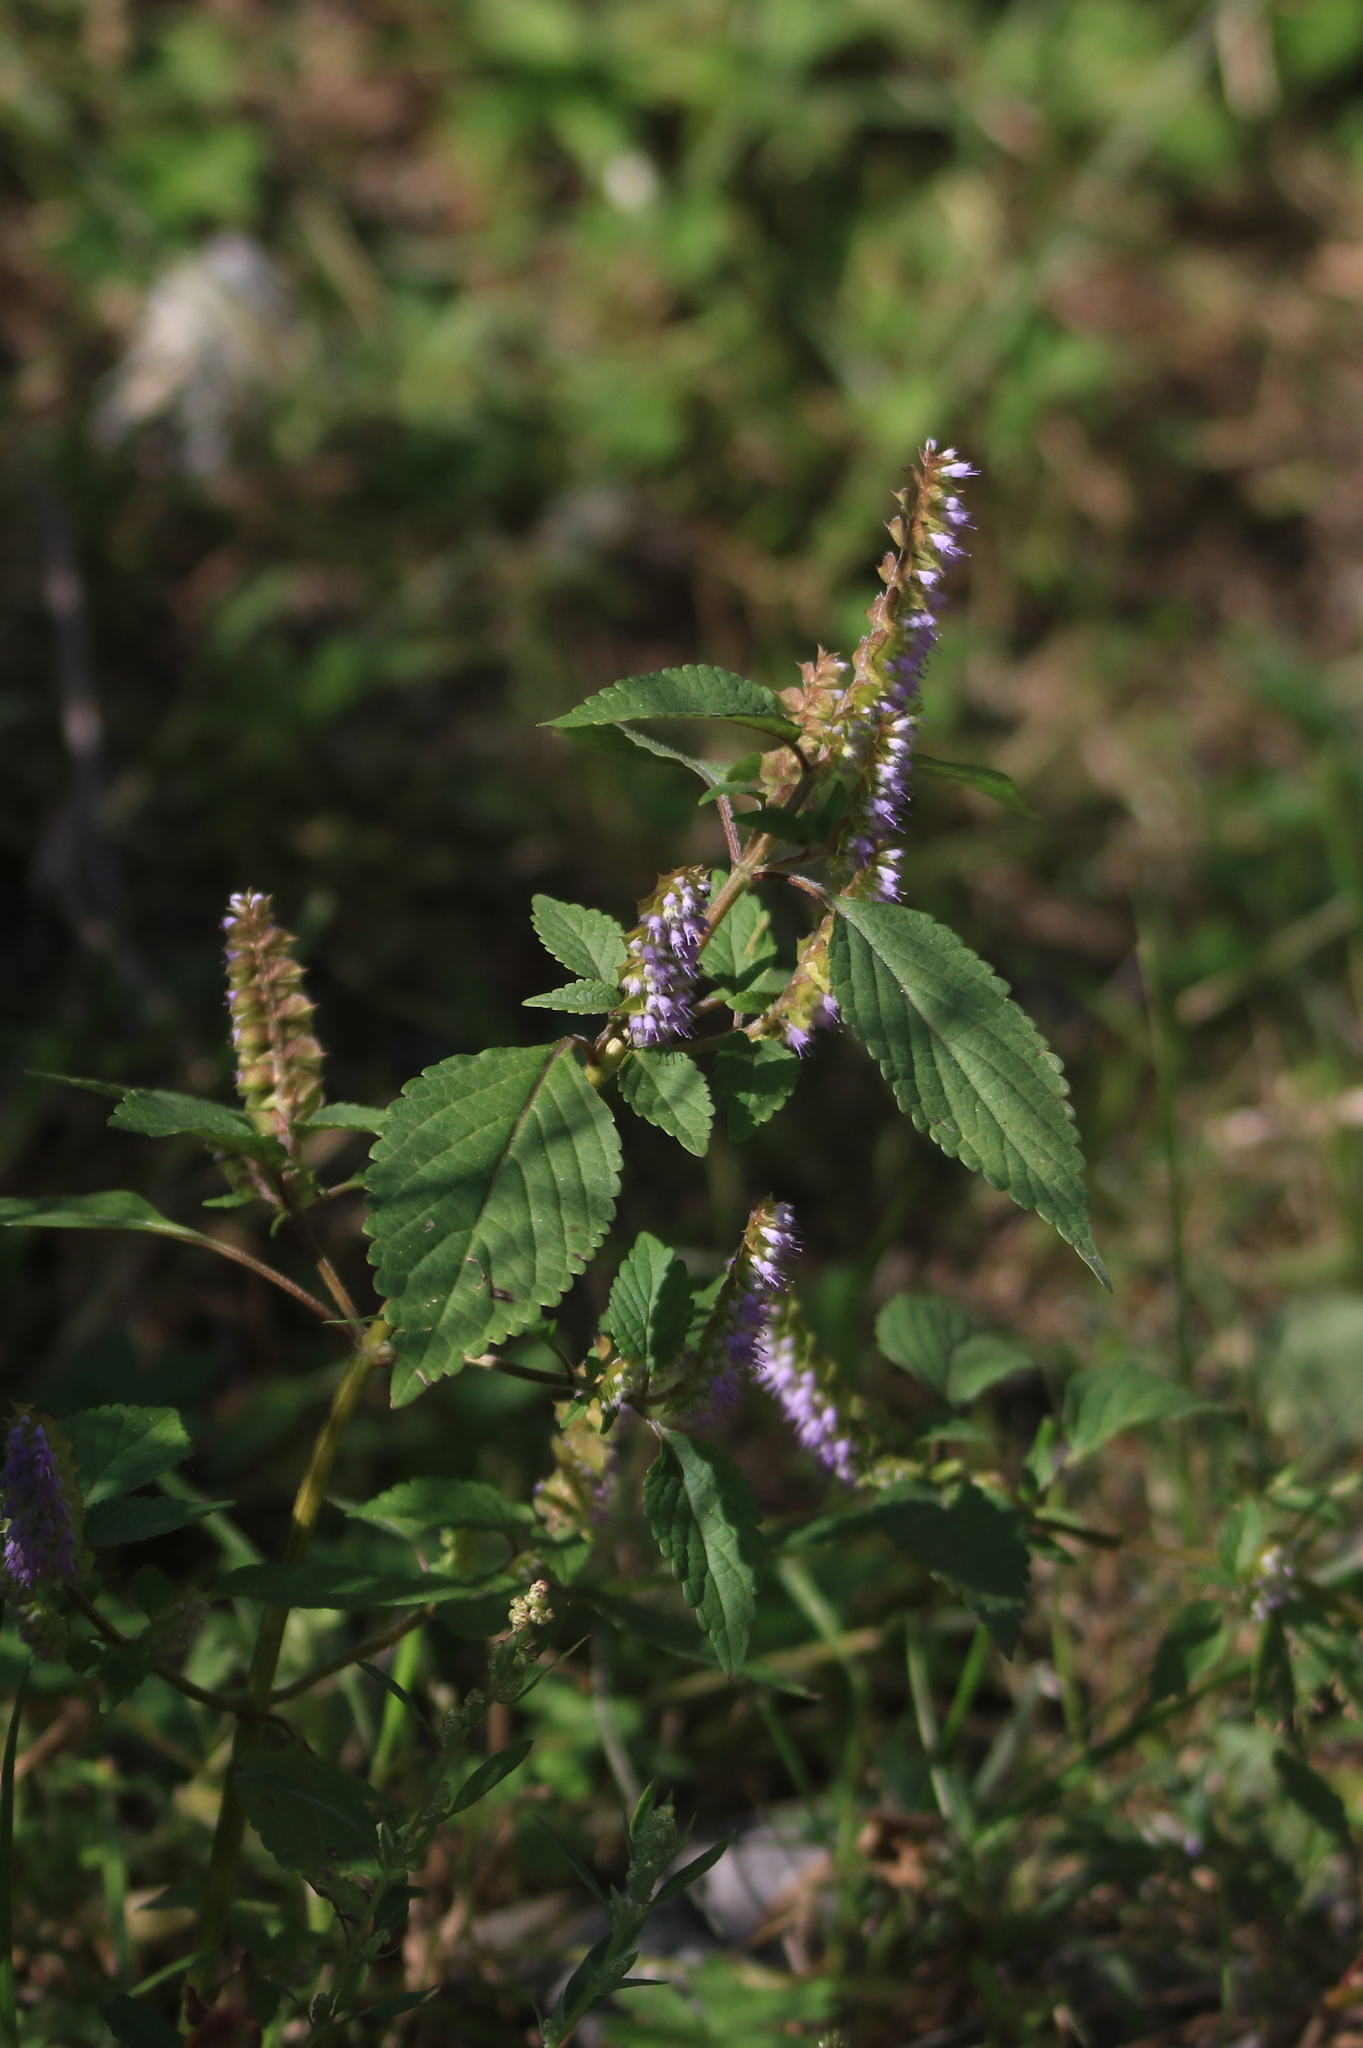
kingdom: Plantae
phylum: Tracheophyta
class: Magnoliopsida
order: Lamiales
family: Lamiaceae
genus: Elsholtzia
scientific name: Elsholtzia ciliata
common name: Ciliate elsholtzia
